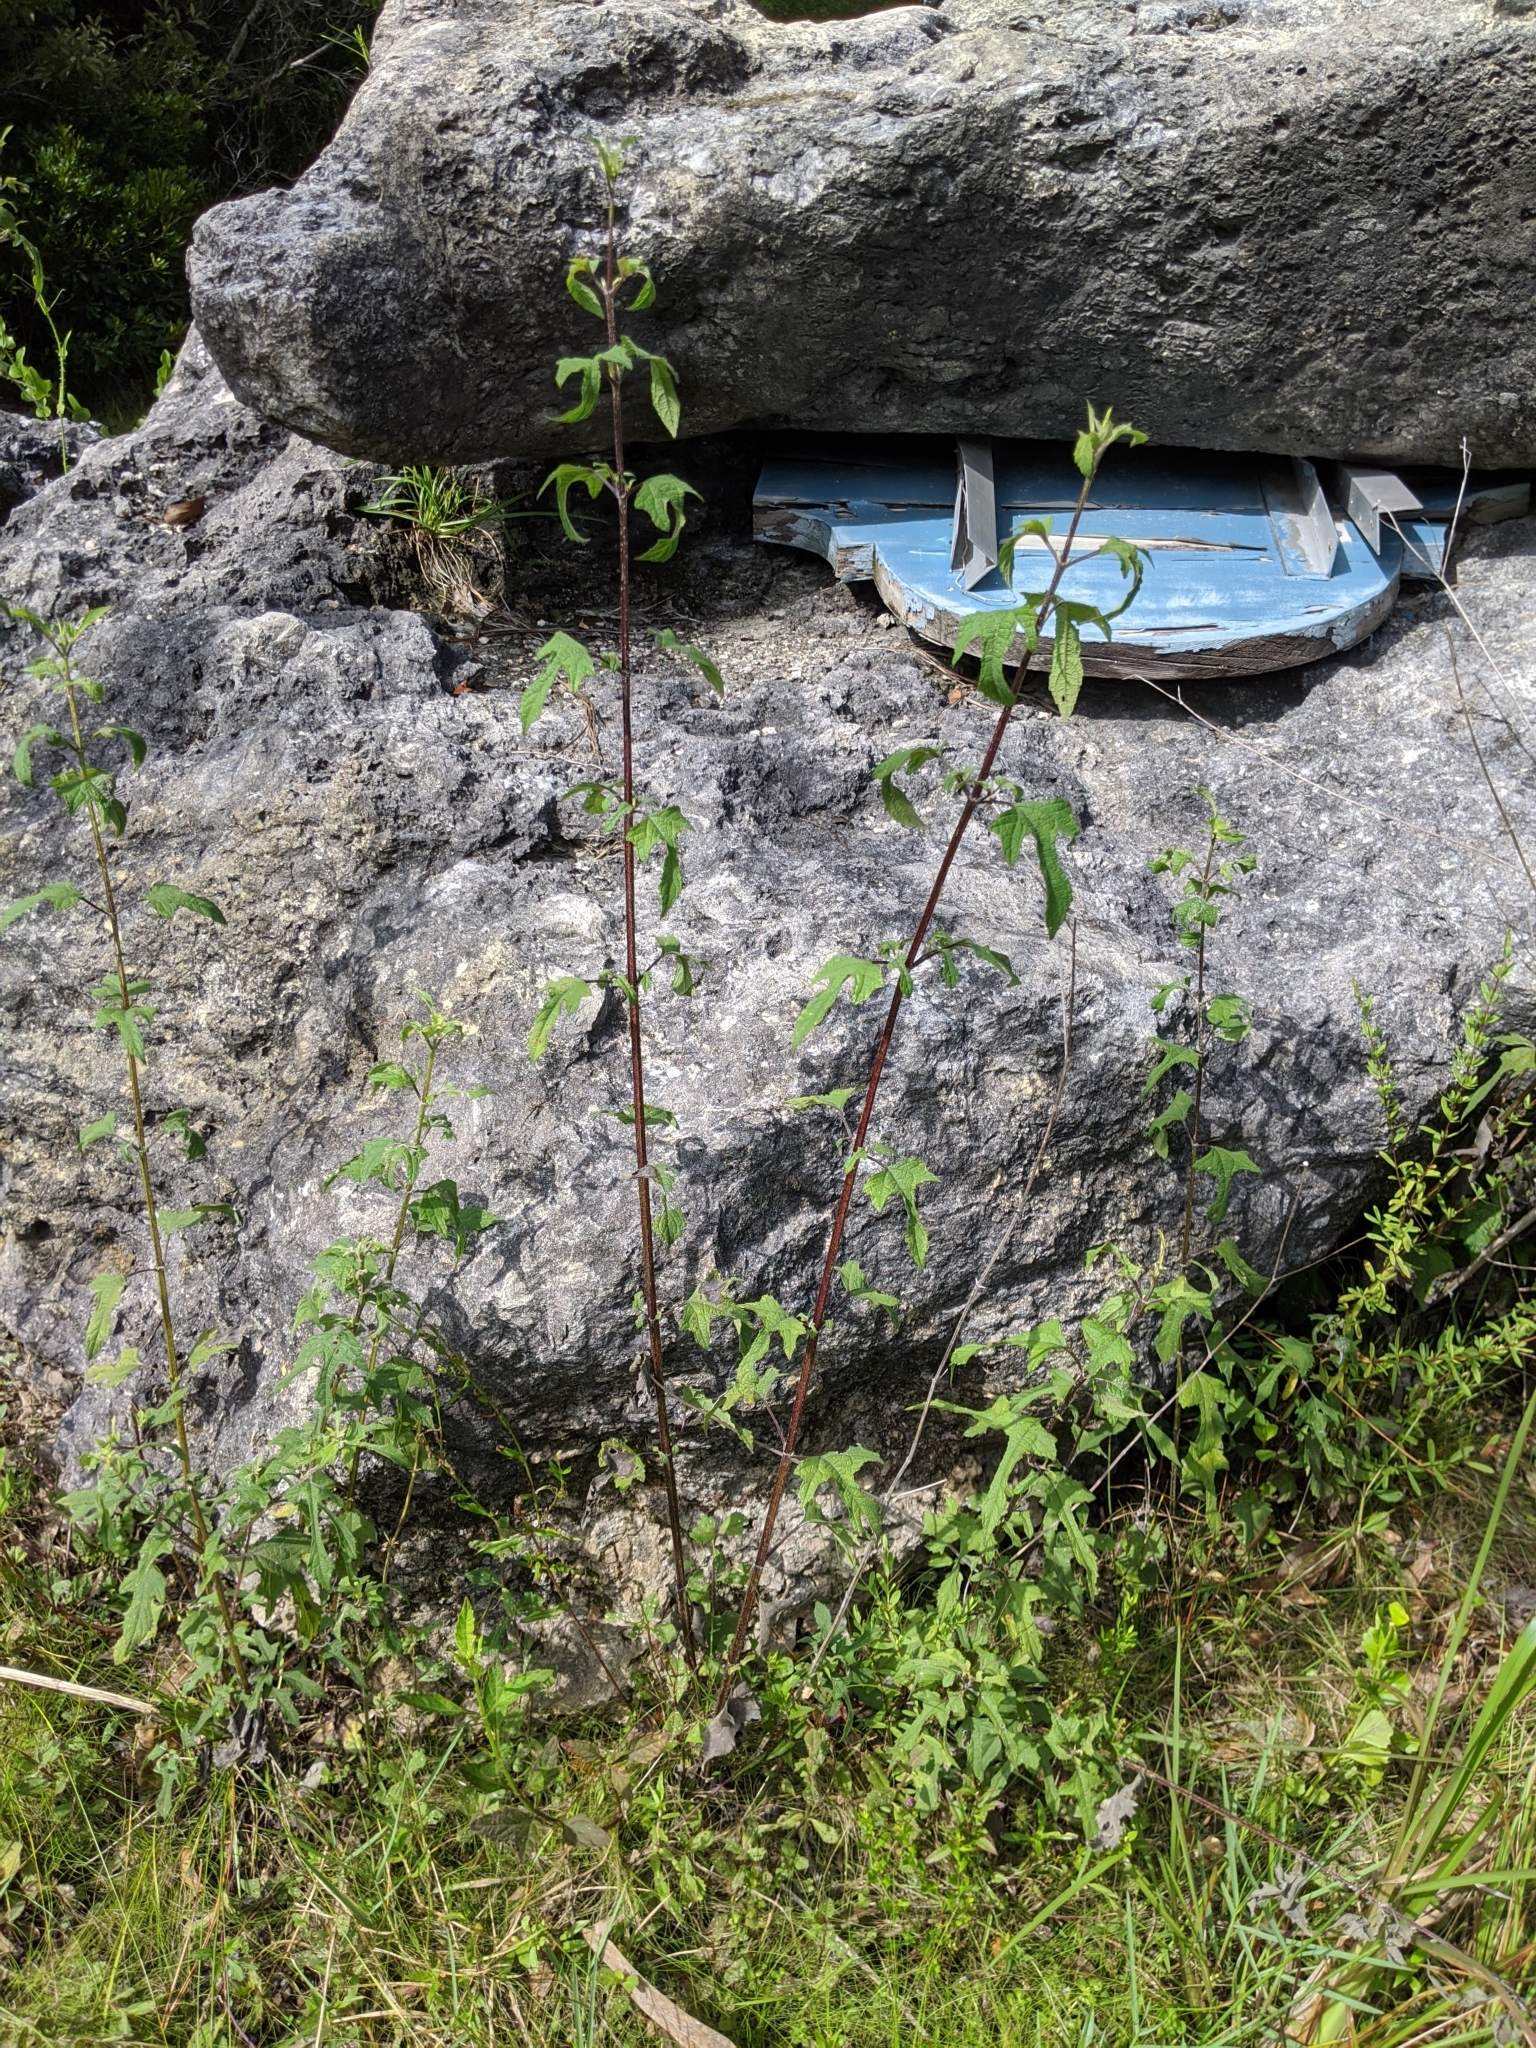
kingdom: Plantae
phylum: Tracheophyta
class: Magnoliopsida
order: Asterales
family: Asteraceae
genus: Melanthera
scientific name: Melanthera nivea
